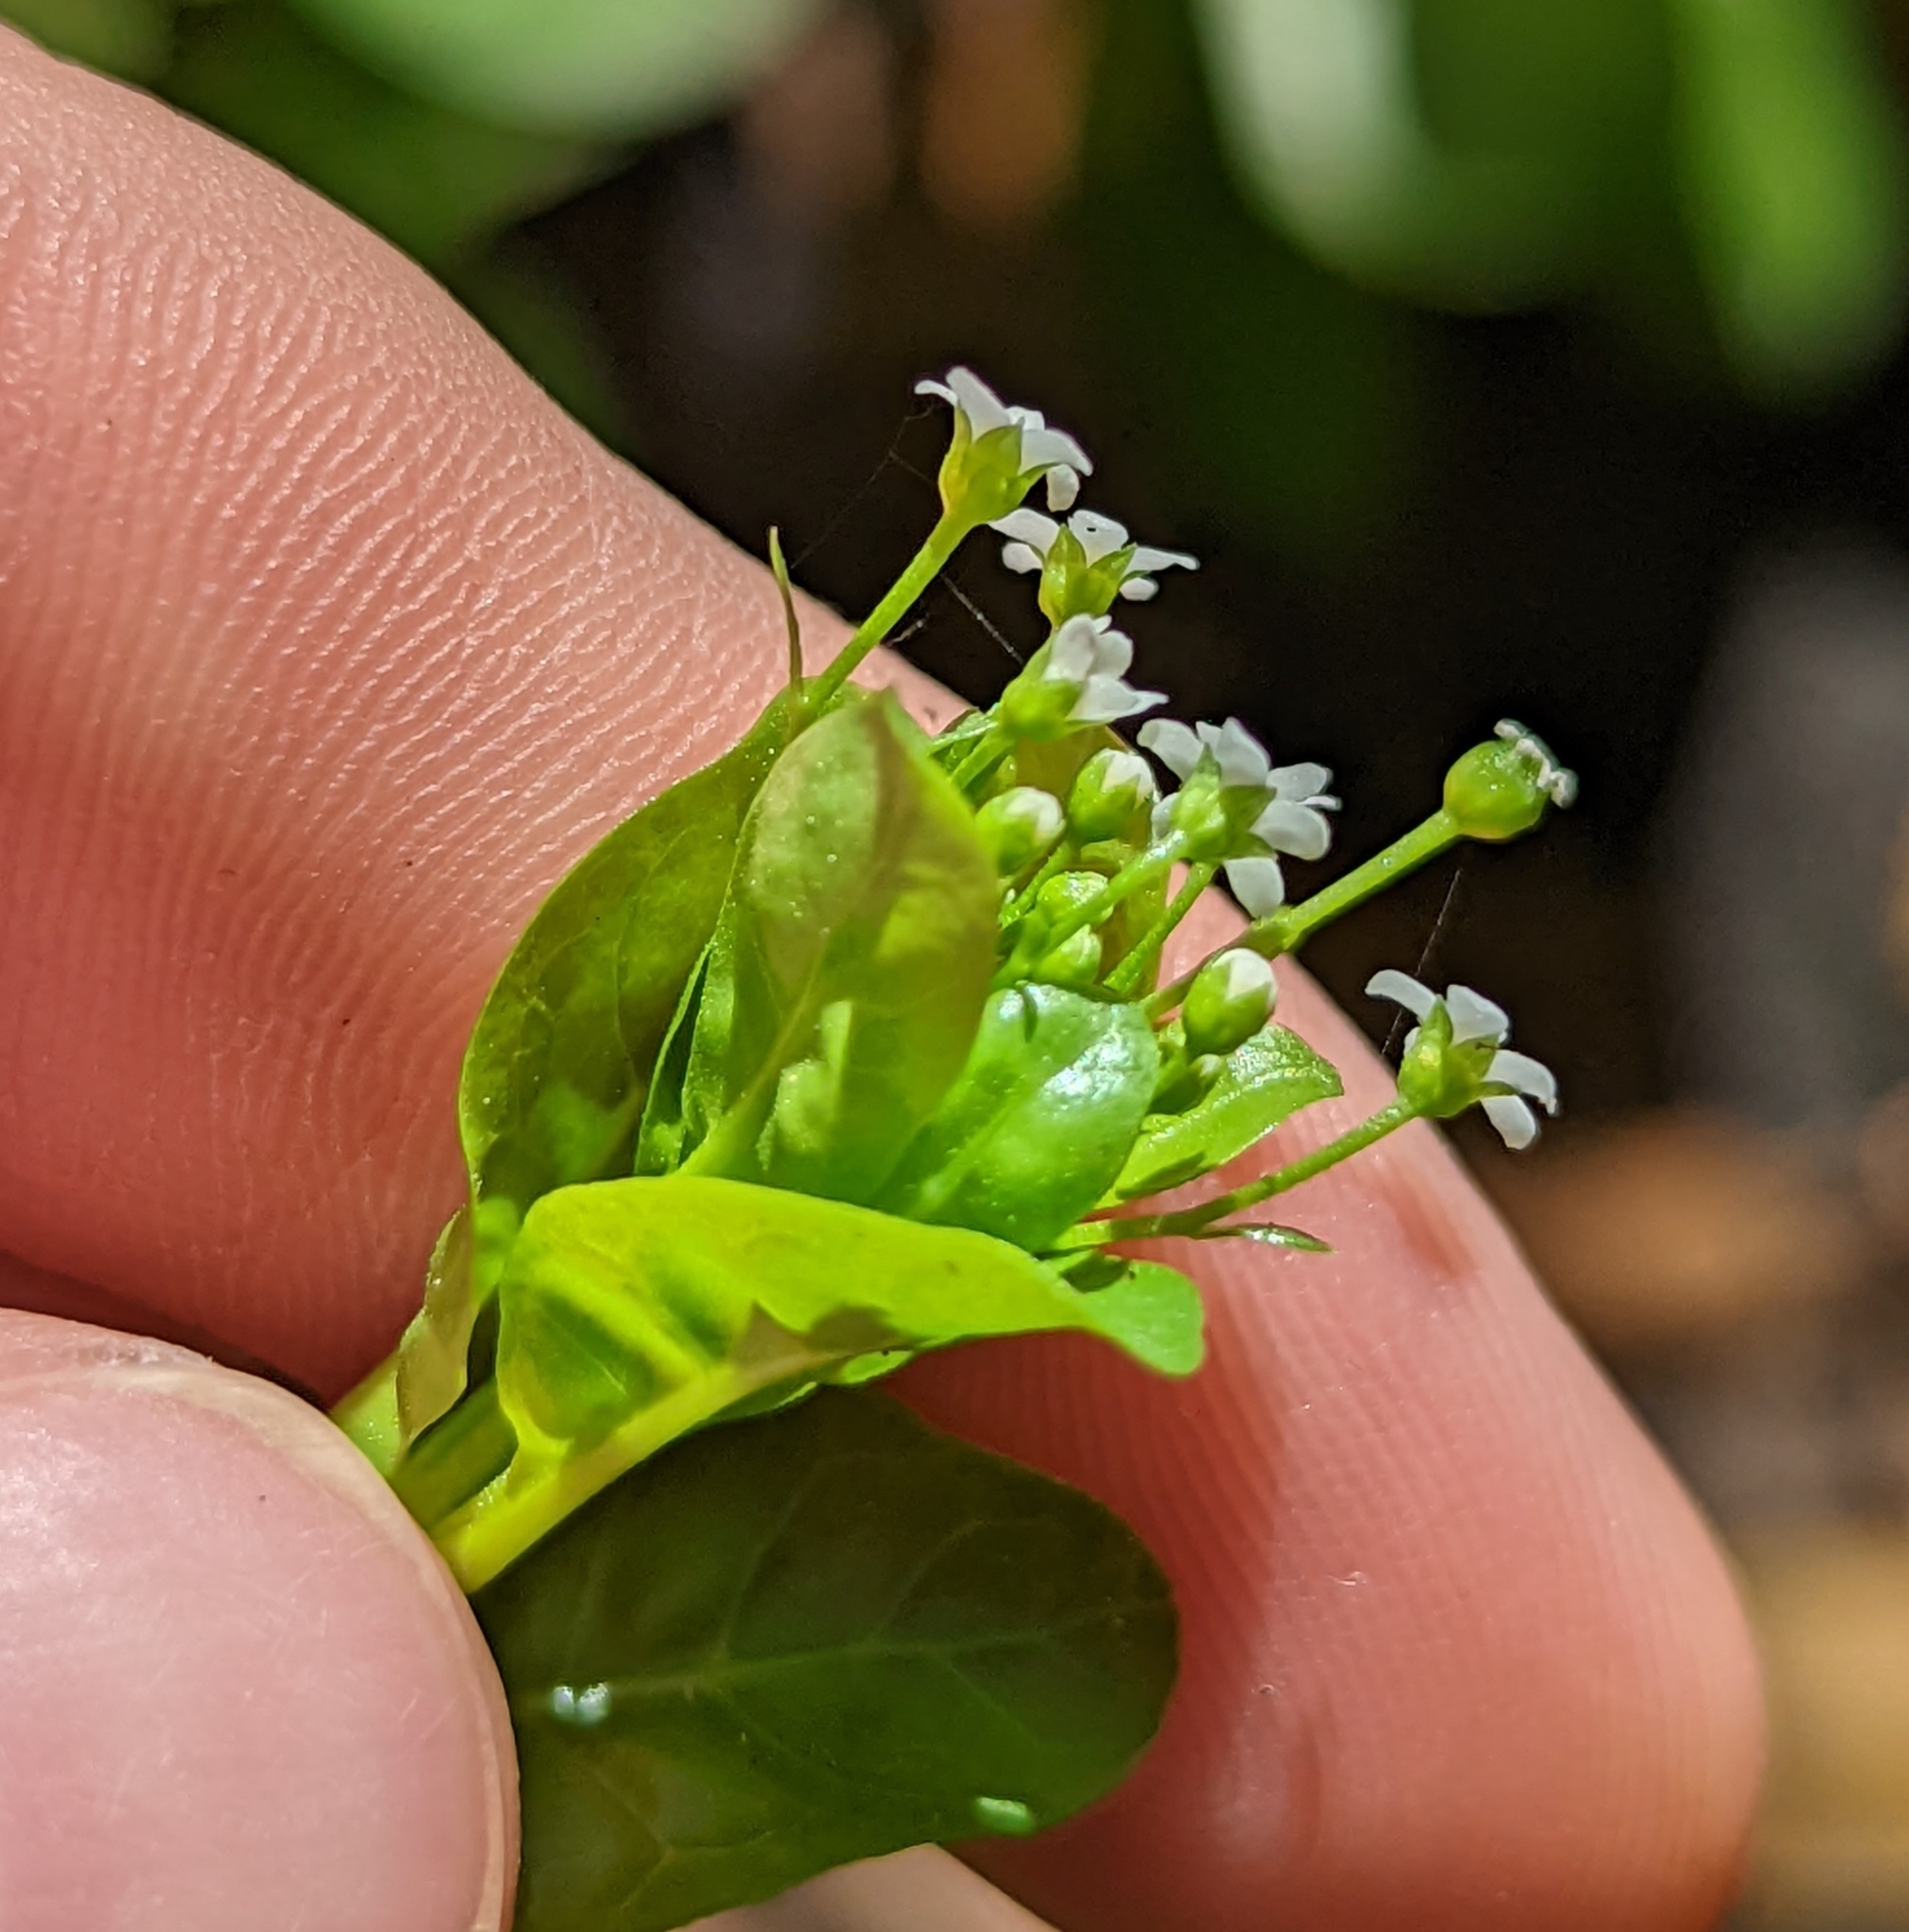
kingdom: Plantae
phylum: Tracheophyta
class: Magnoliopsida
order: Ericales
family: Primulaceae
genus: Samolus
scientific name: Samolus parviflorus
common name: False water pimpernel
